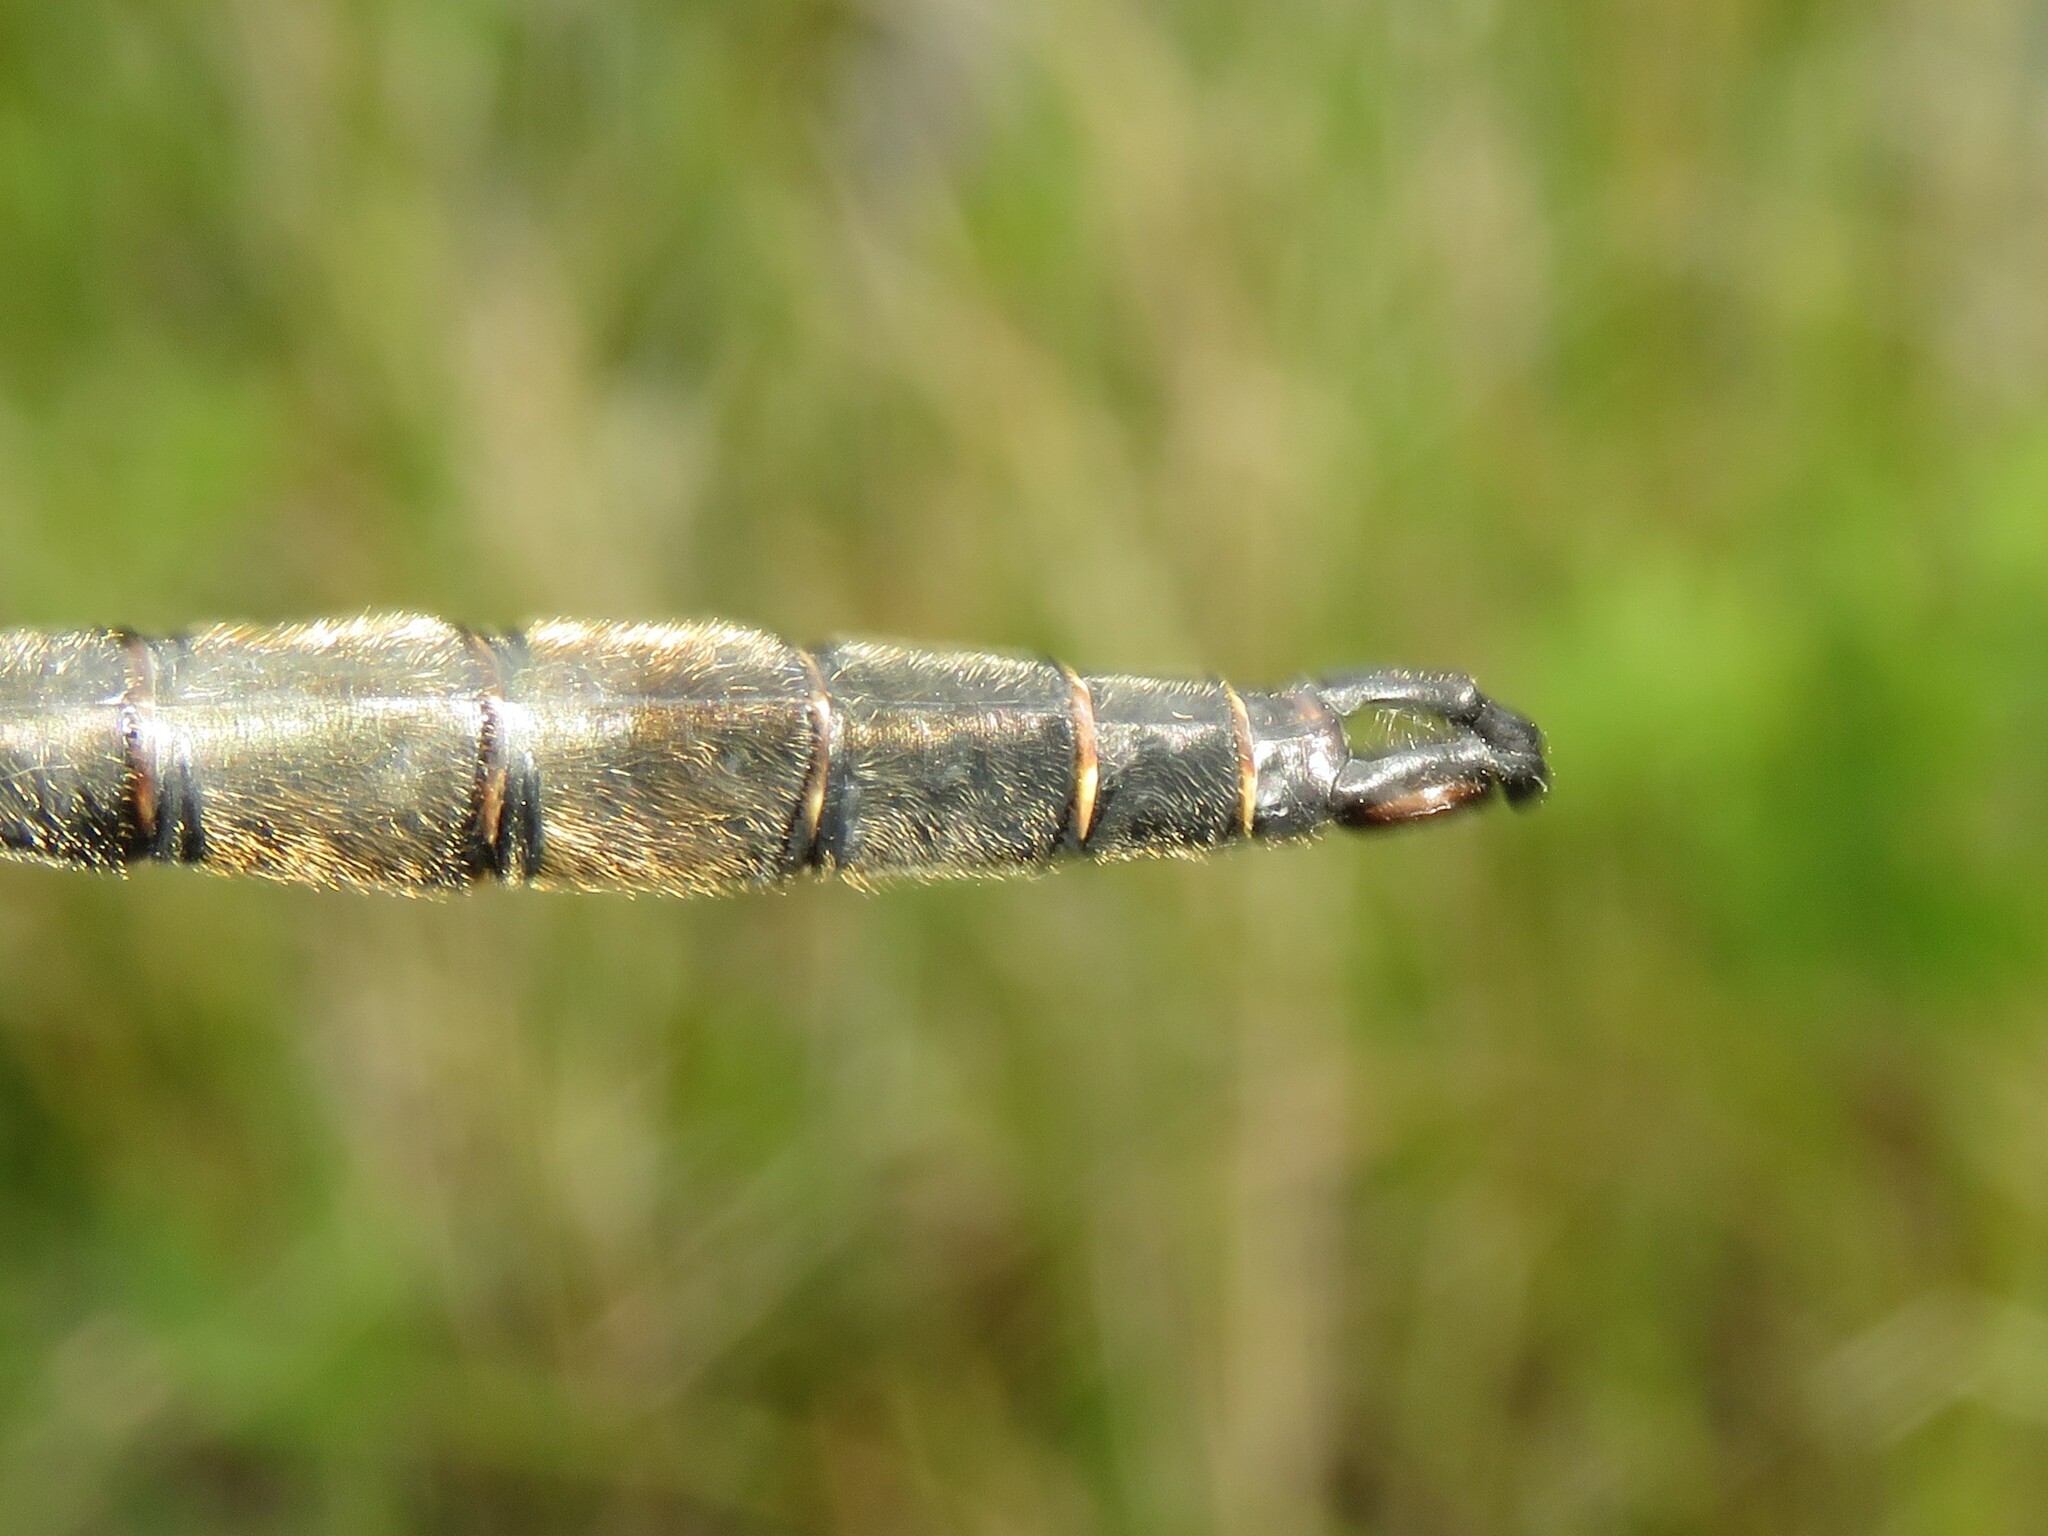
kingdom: Animalia
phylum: Arthropoda
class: Insecta
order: Odonata
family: Corduliidae
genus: Somatochlora
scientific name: Somatochlora hineana
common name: Hine's emerald
